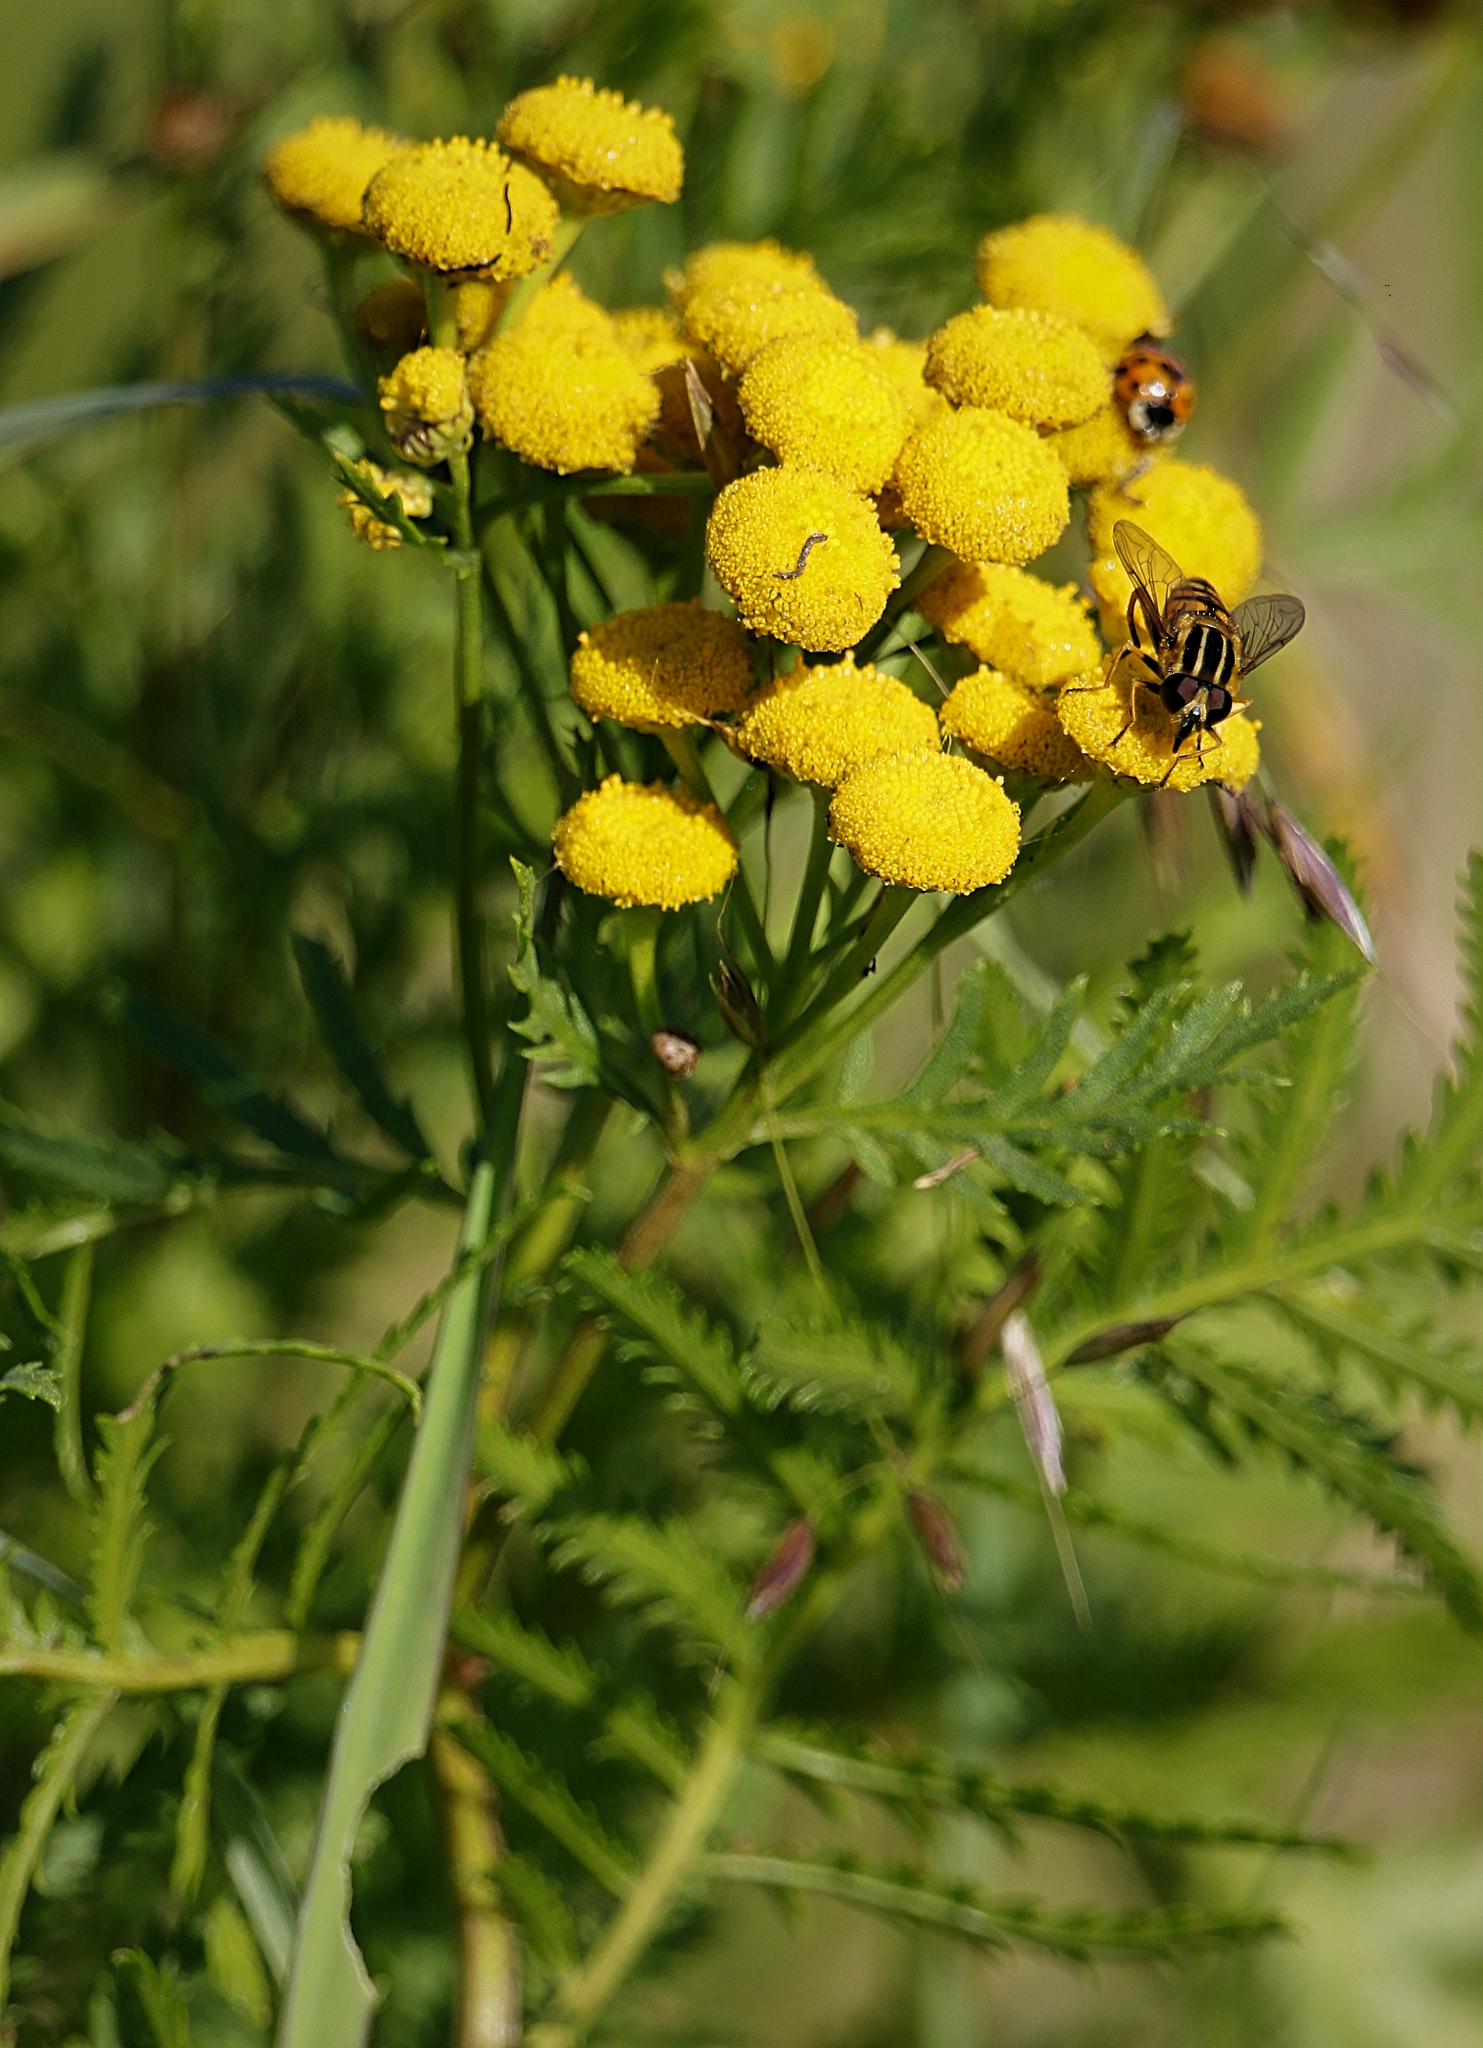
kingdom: Animalia
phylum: Arthropoda
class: Insecta
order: Diptera
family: Syrphidae
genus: Helophilus
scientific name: Helophilus pendulus
